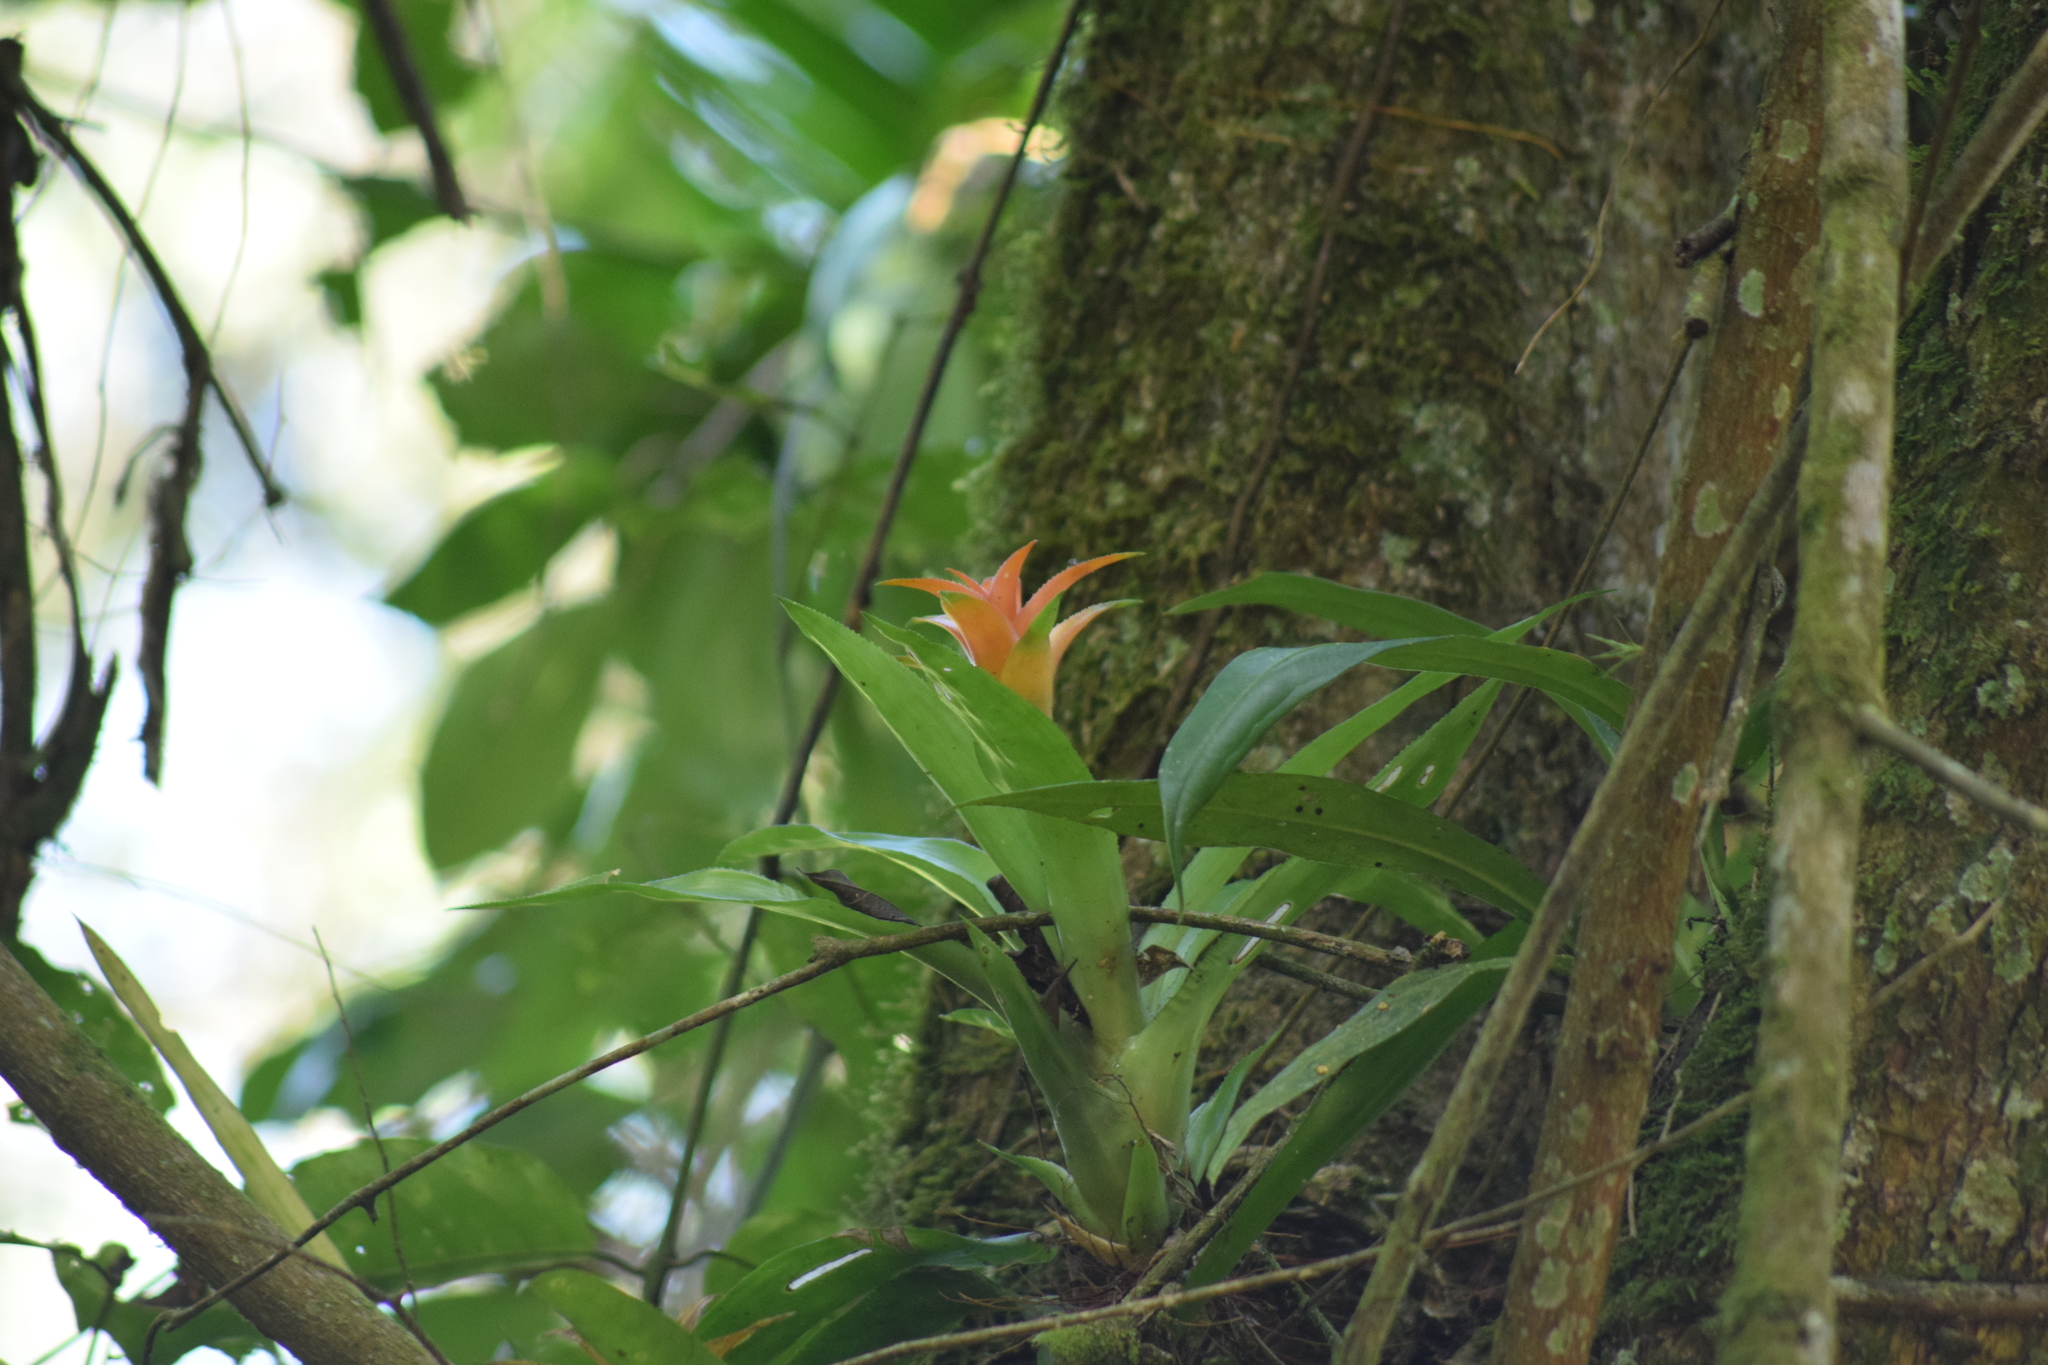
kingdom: Plantae
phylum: Tracheophyta
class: Liliopsida
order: Poales
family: Bromeliaceae
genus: Canistropsis
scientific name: Canistropsis billbergioides
